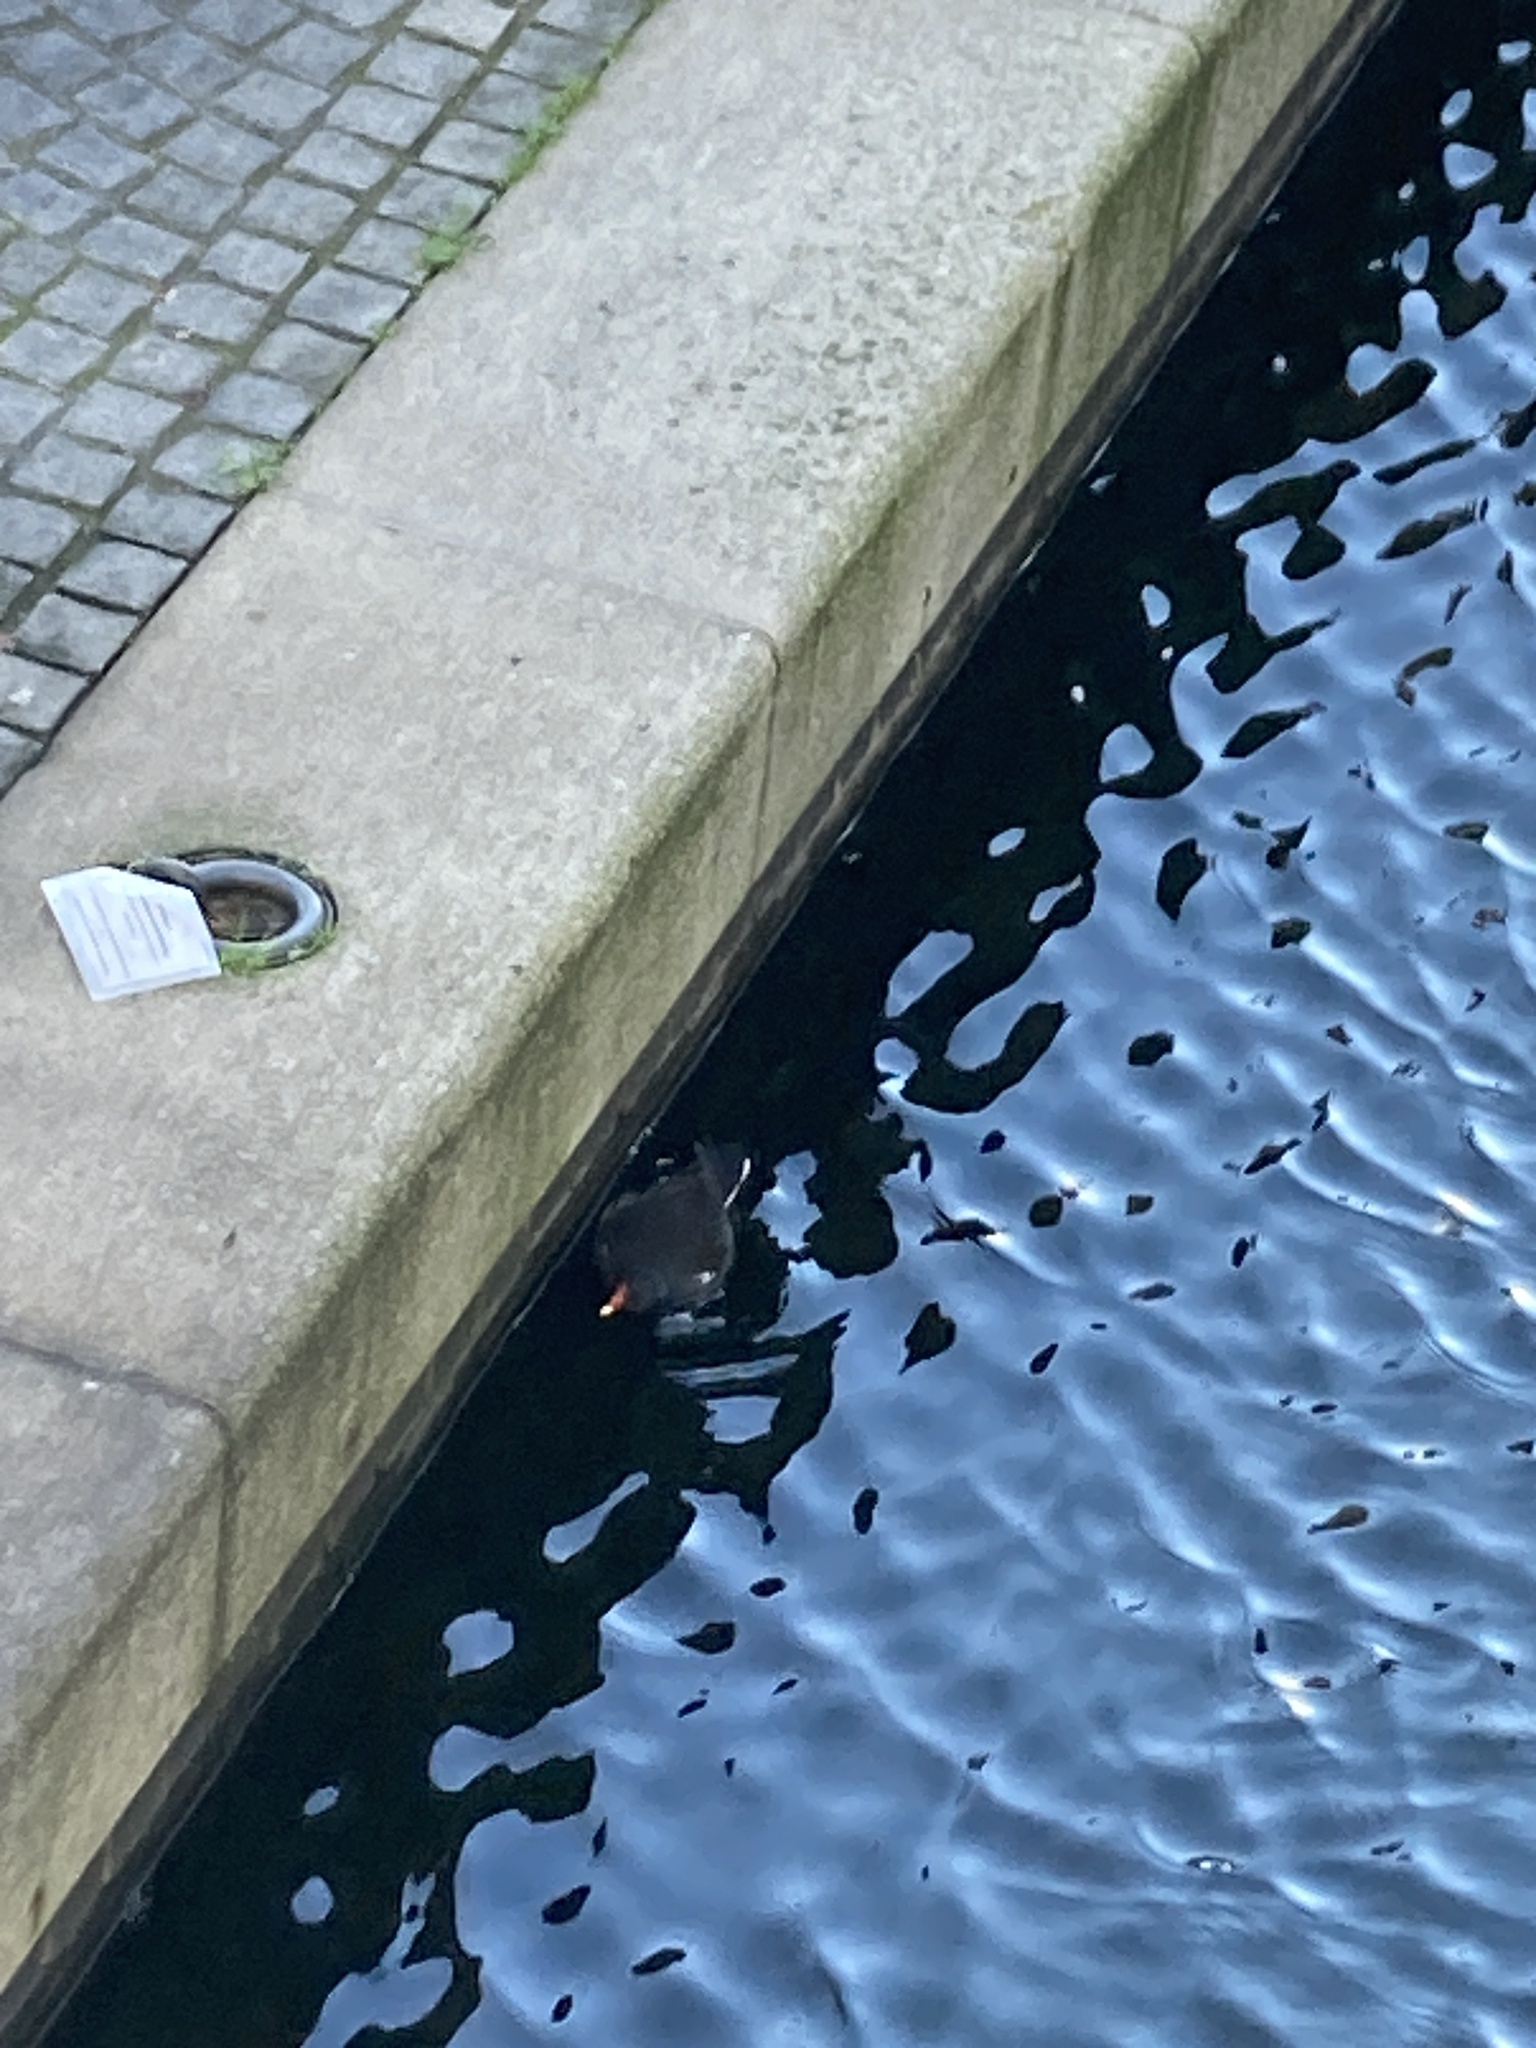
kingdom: Animalia
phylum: Chordata
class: Aves
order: Gruiformes
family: Rallidae
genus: Gallinula
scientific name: Gallinula chloropus
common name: Common moorhen
